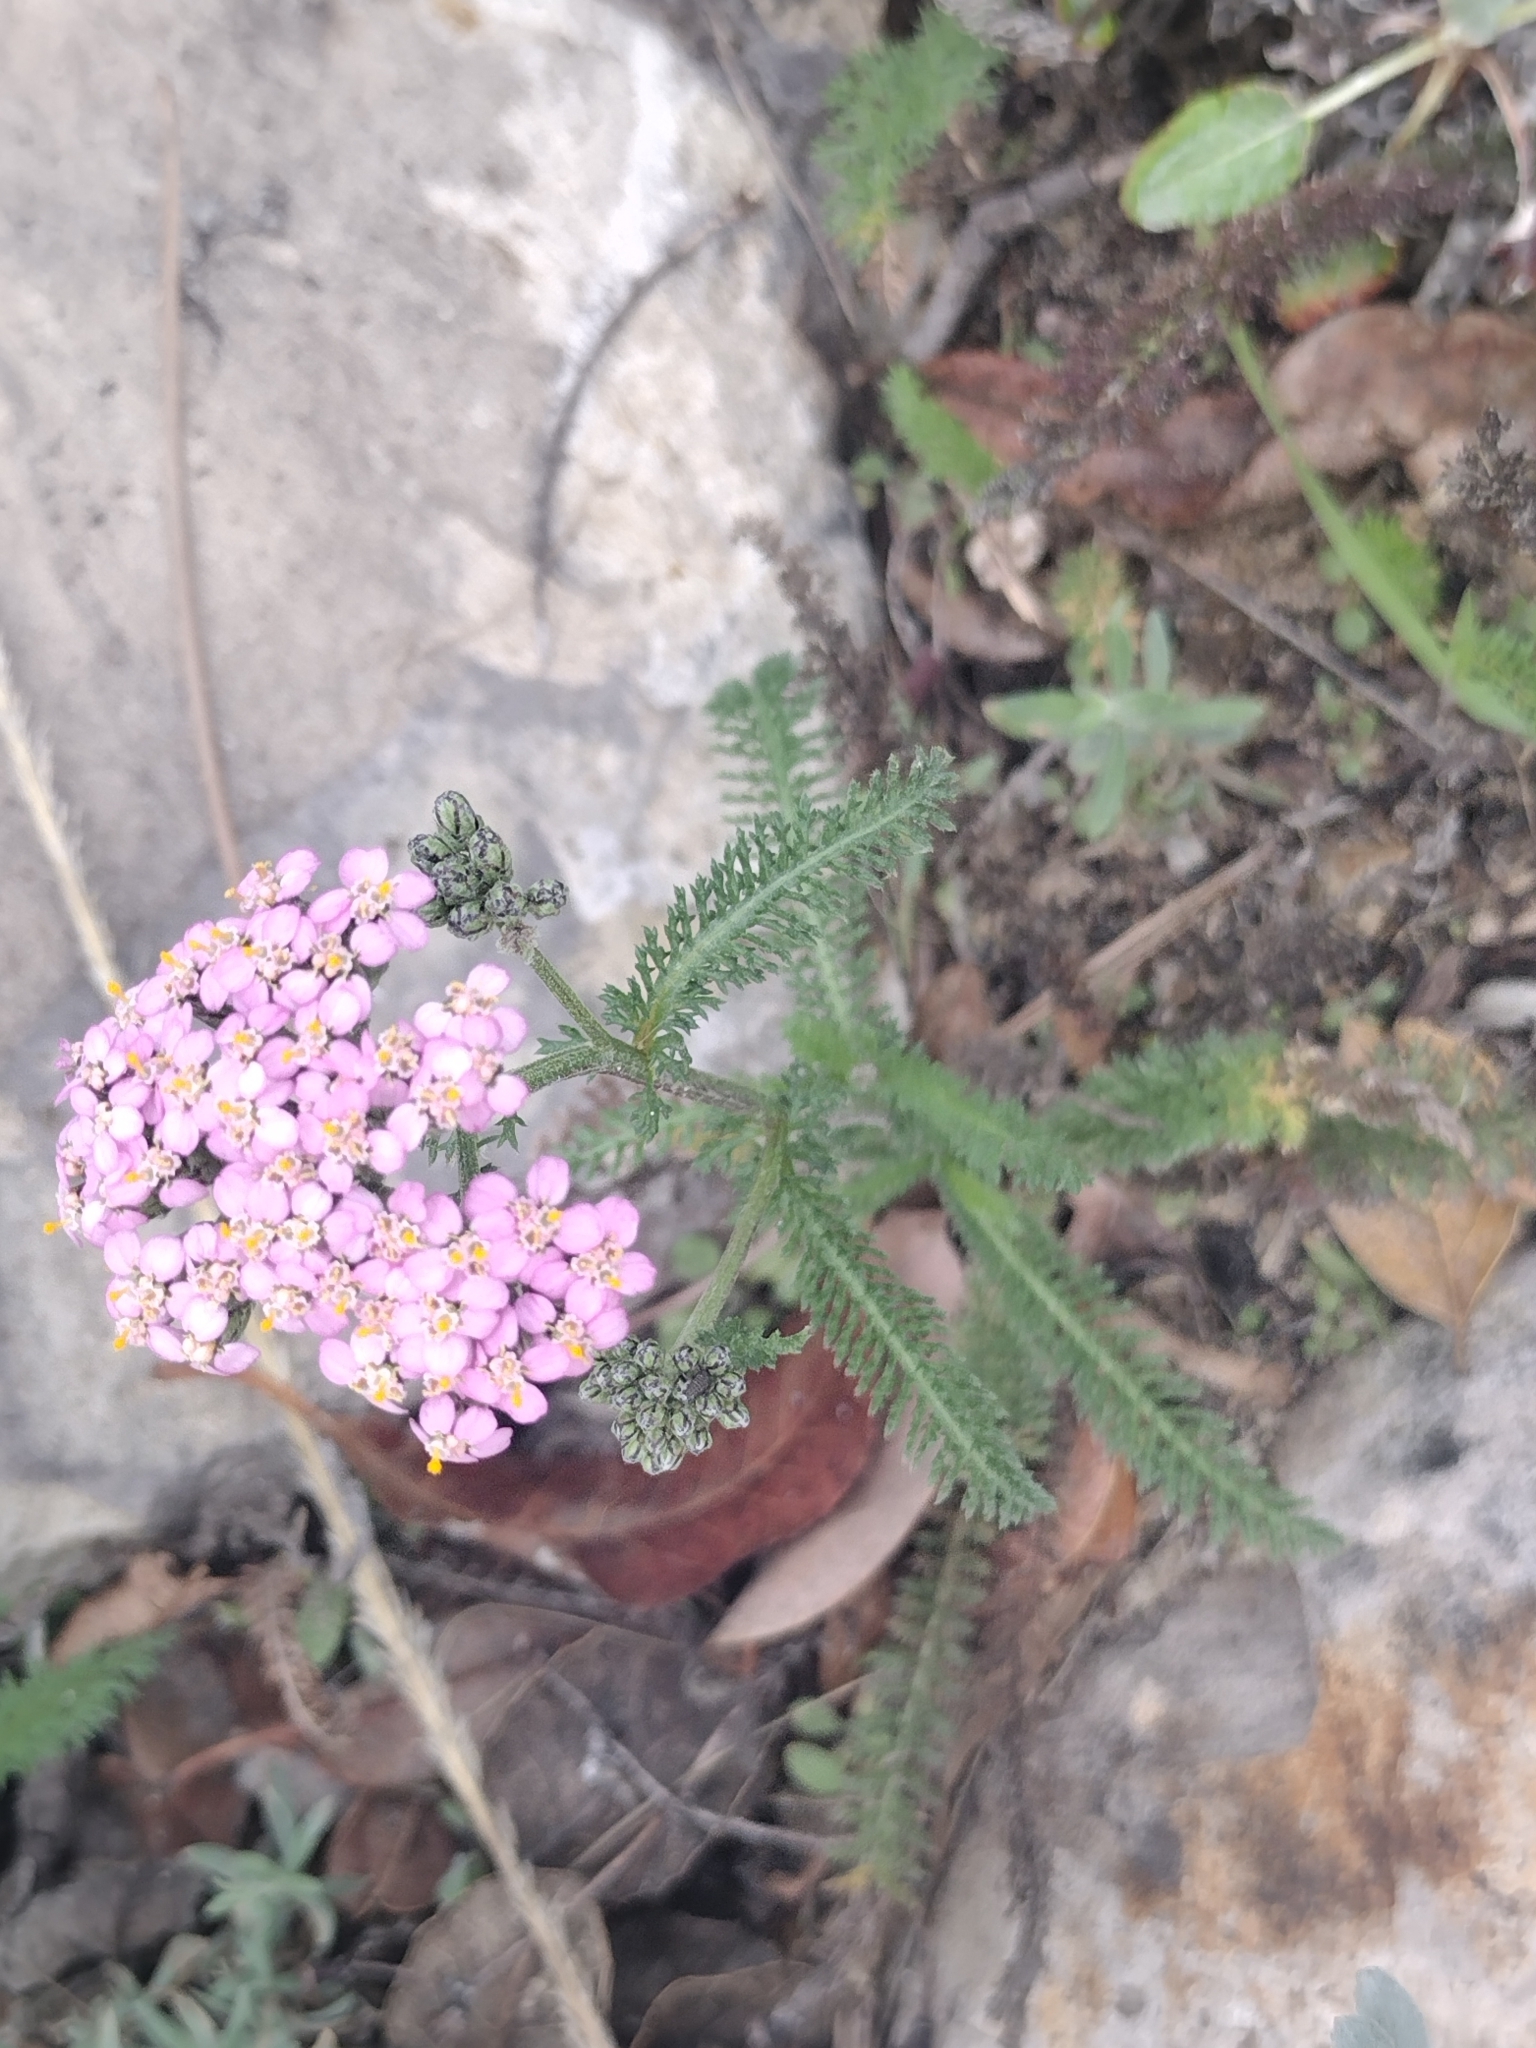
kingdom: Plantae
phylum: Tracheophyta
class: Magnoliopsida
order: Asterales
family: Asteraceae
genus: Achillea
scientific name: Achillea millefolium
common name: Yarrow
